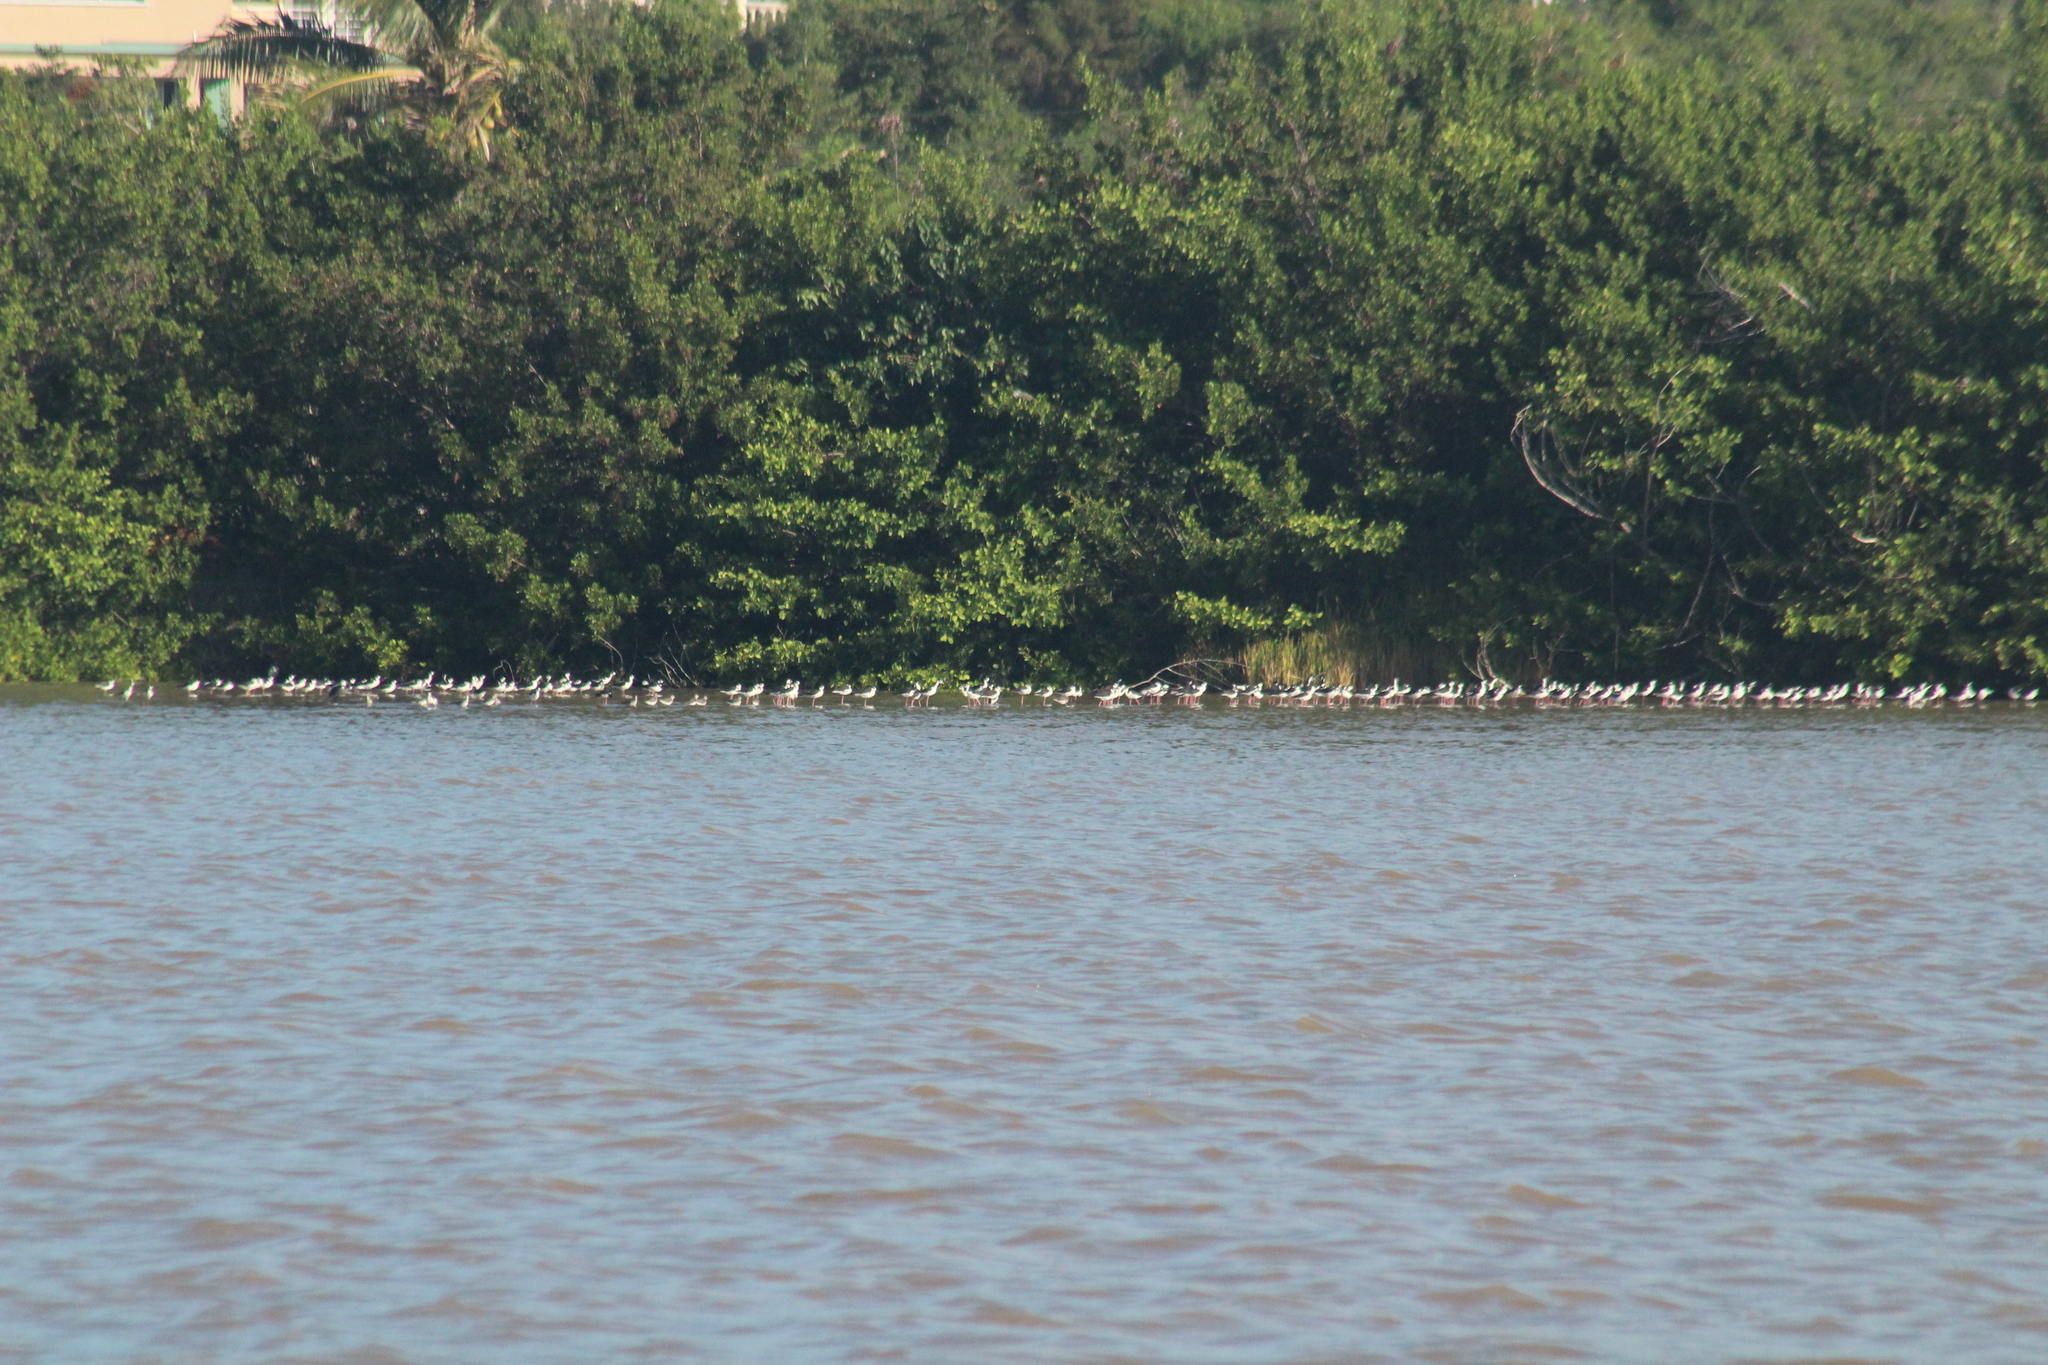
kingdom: Animalia
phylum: Chordata
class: Aves
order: Charadriiformes
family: Recurvirostridae
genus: Himantopus
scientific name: Himantopus mexicanus
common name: Black-necked stilt
